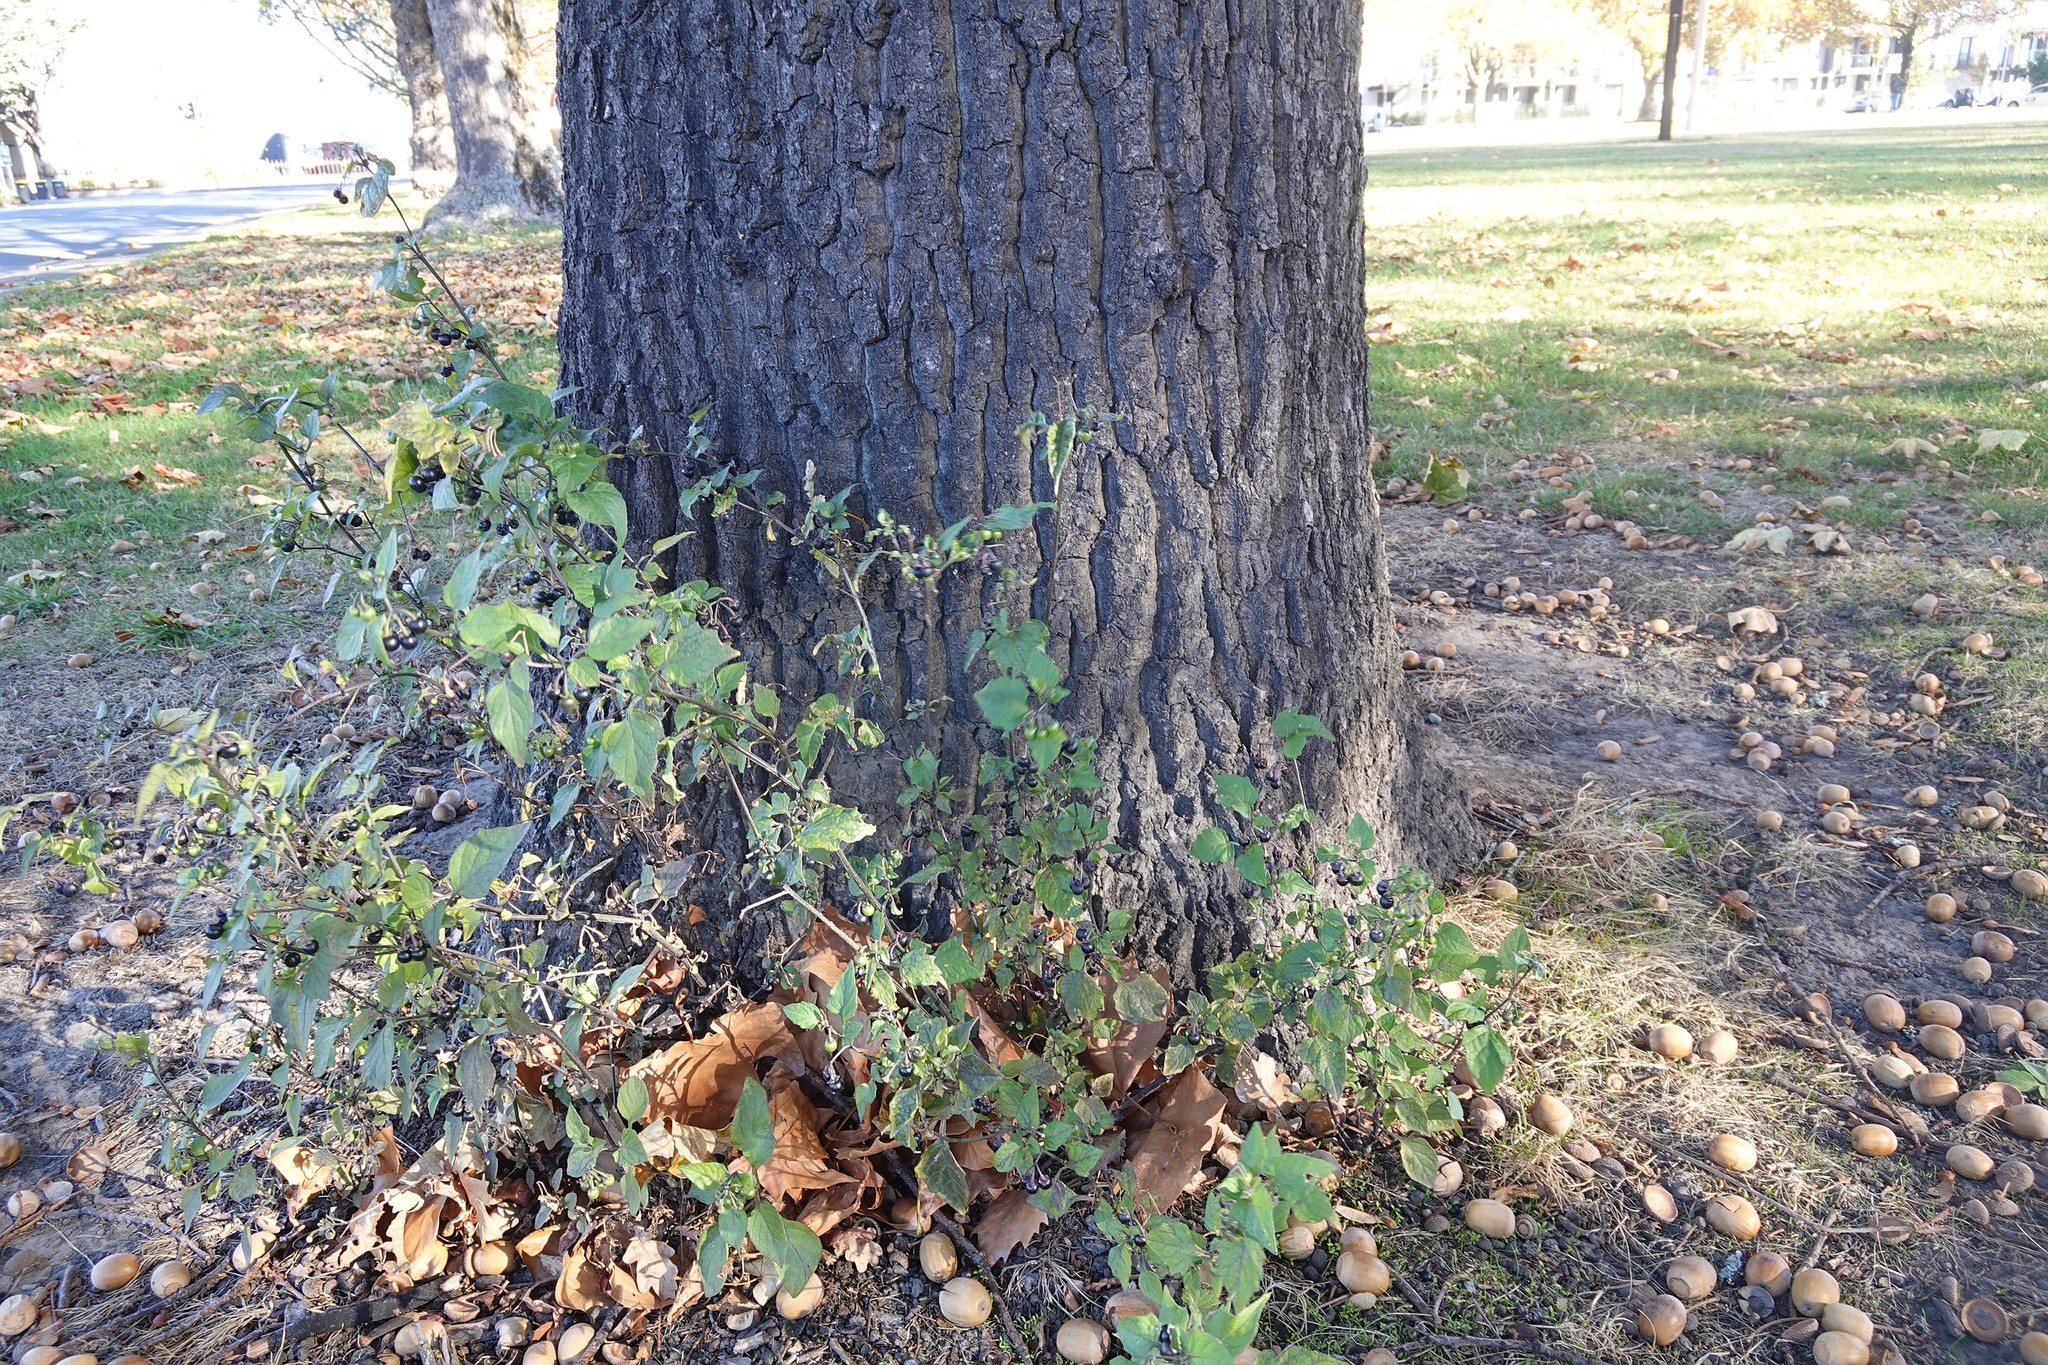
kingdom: Plantae
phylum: Tracheophyta
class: Magnoliopsida
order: Solanales
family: Solanaceae
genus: Solanum
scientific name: Solanum nigrum
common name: Black nightshade
